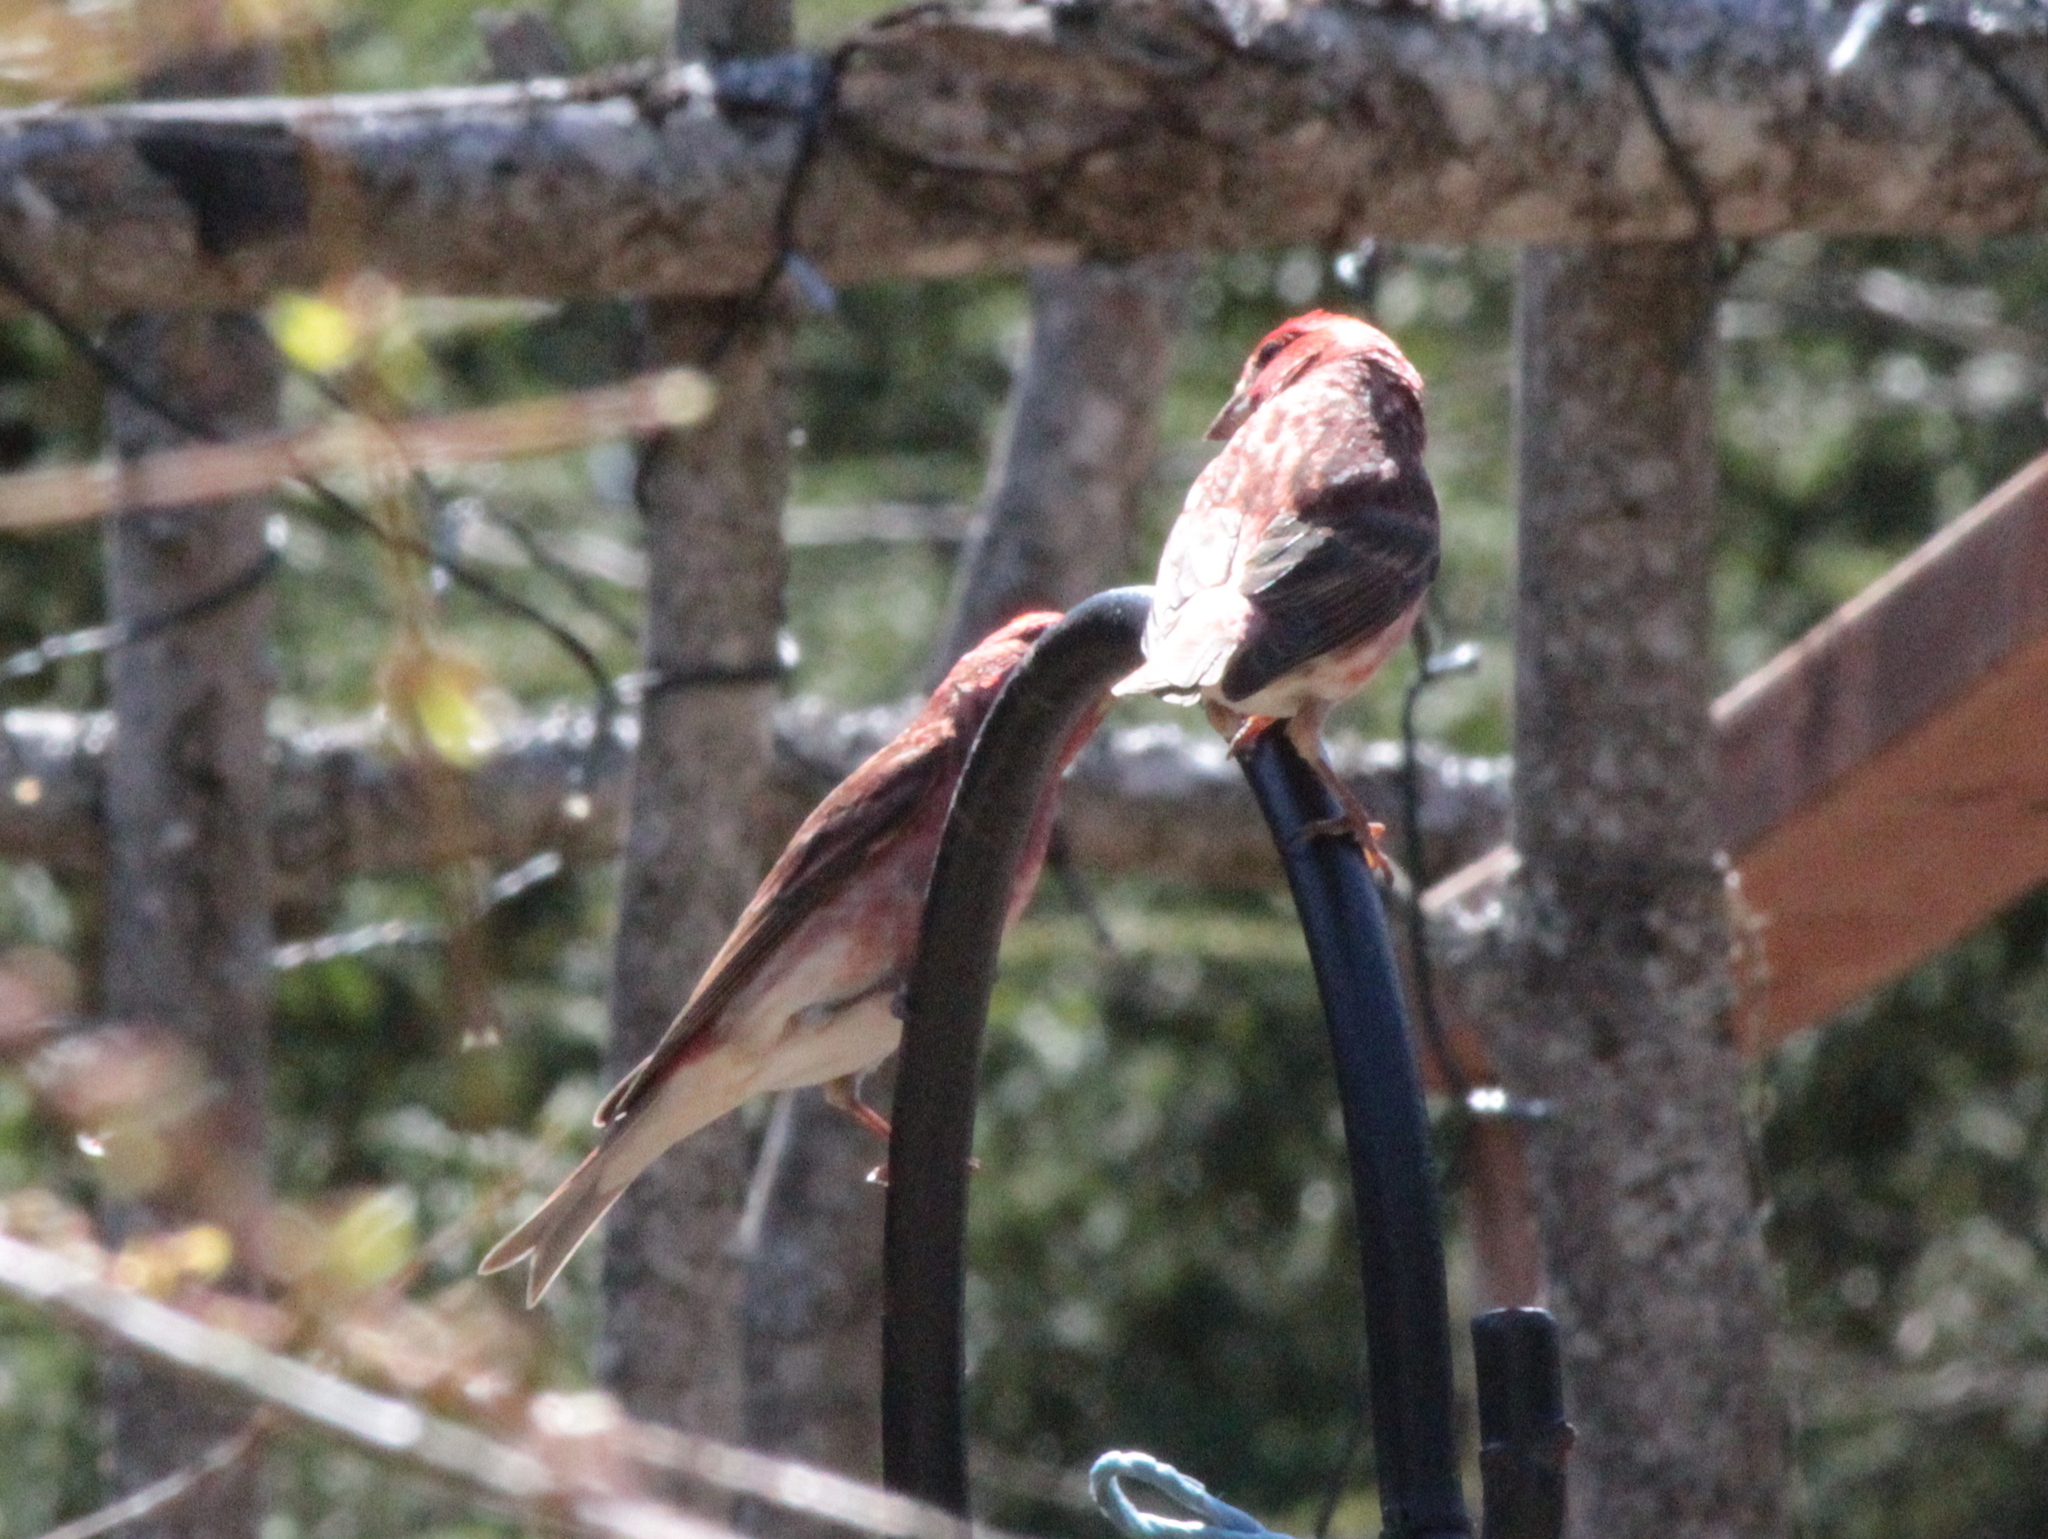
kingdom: Animalia
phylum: Chordata
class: Aves
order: Passeriformes
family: Fringillidae
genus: Haemorhous
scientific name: Haemorhous purpureus
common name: Purple finch
